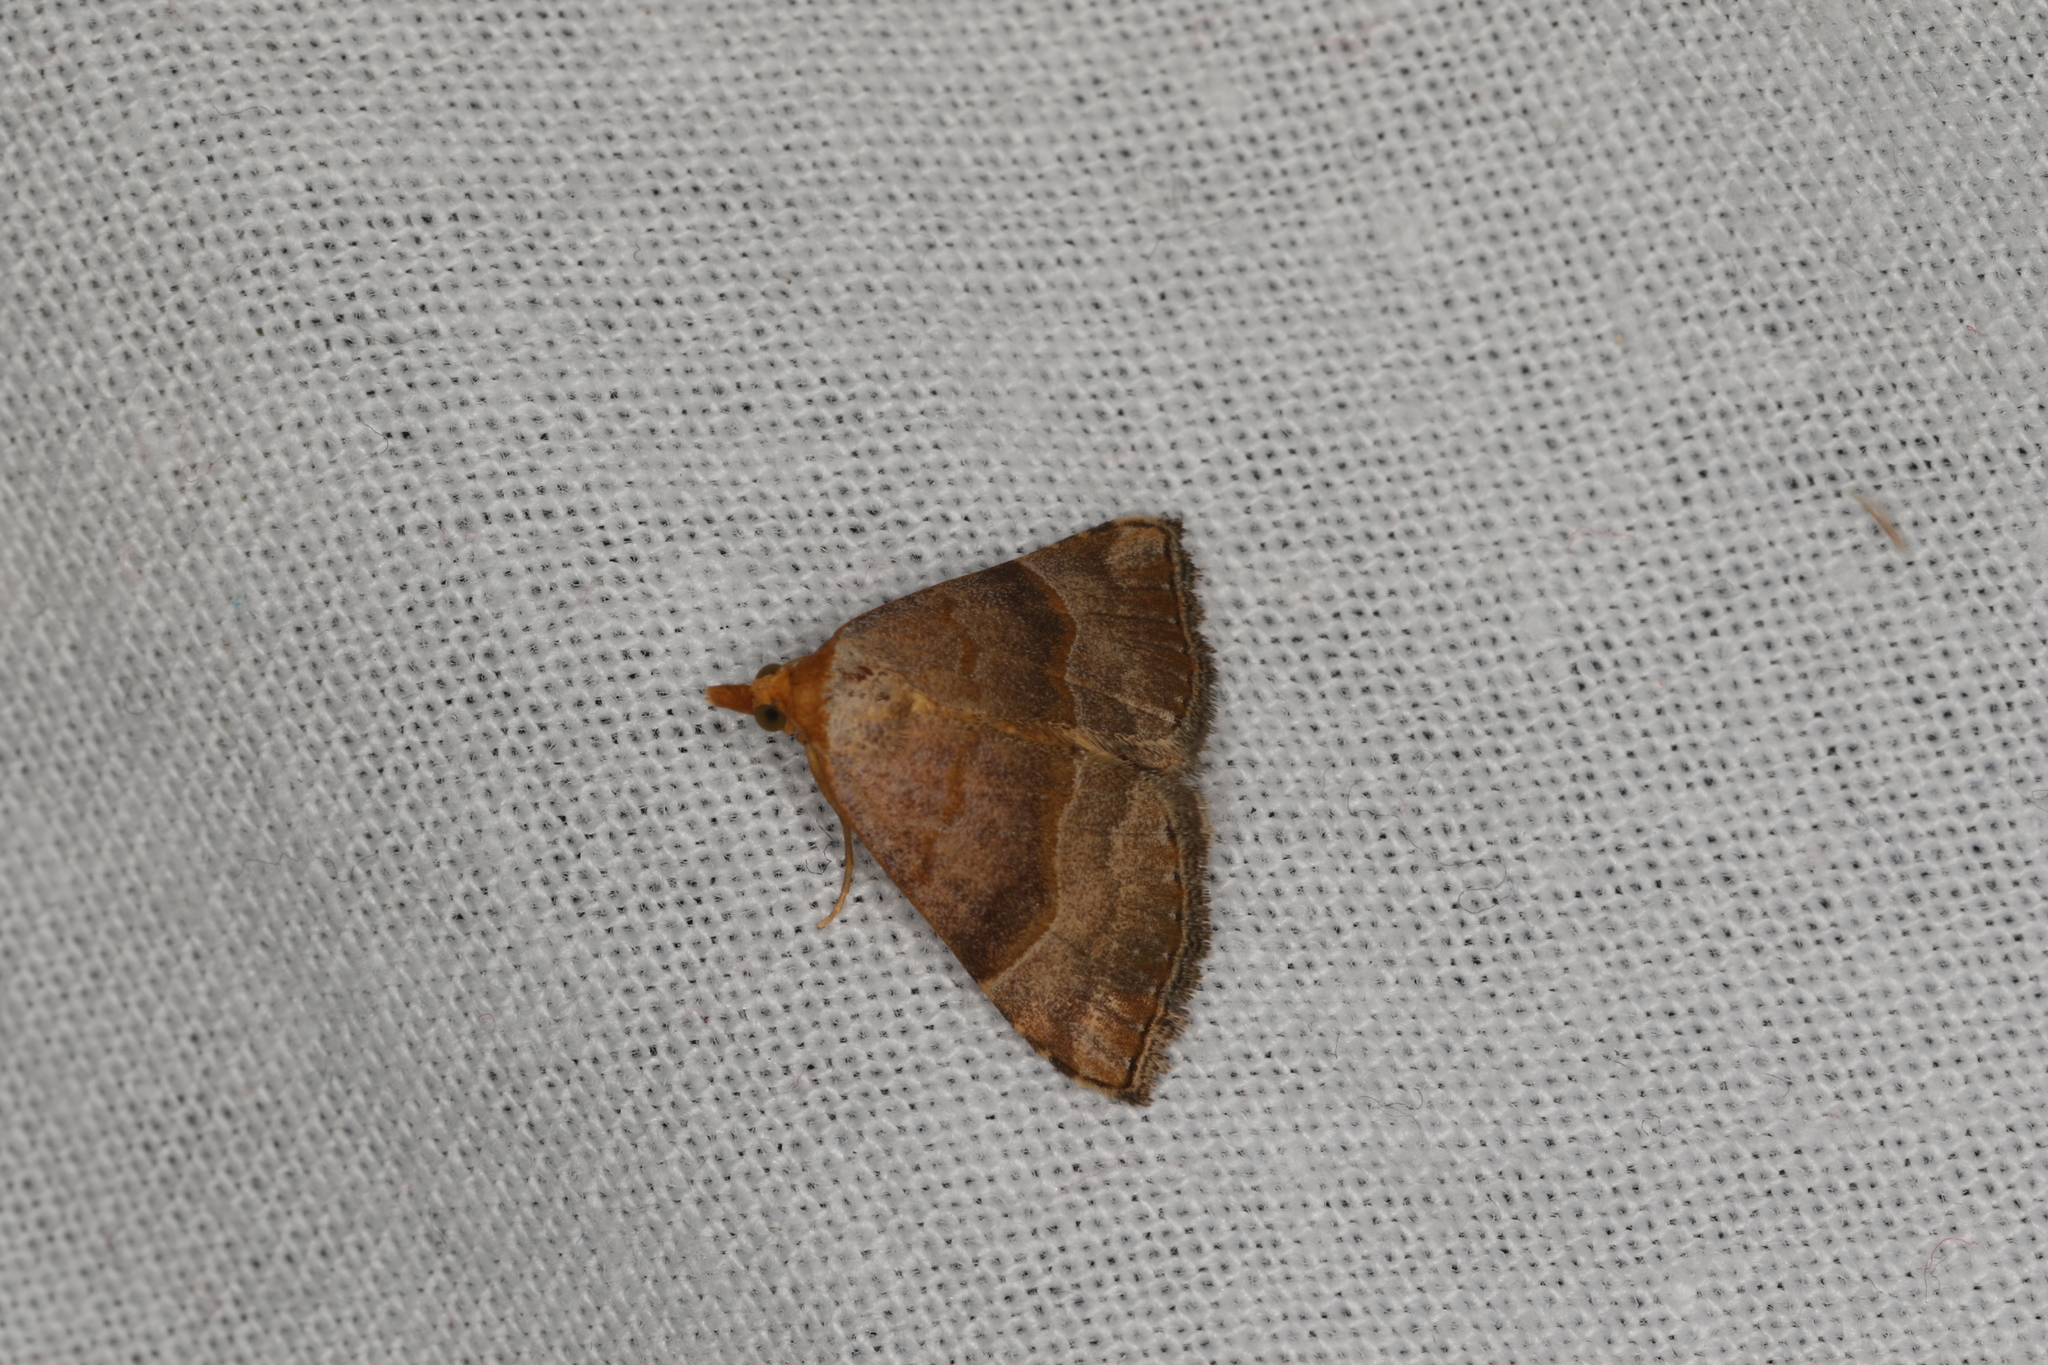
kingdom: Animalia
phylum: Arthropoda
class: Insecta
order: Lepidoptera
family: Erebidae
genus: Meranda
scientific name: Meranda susialis
